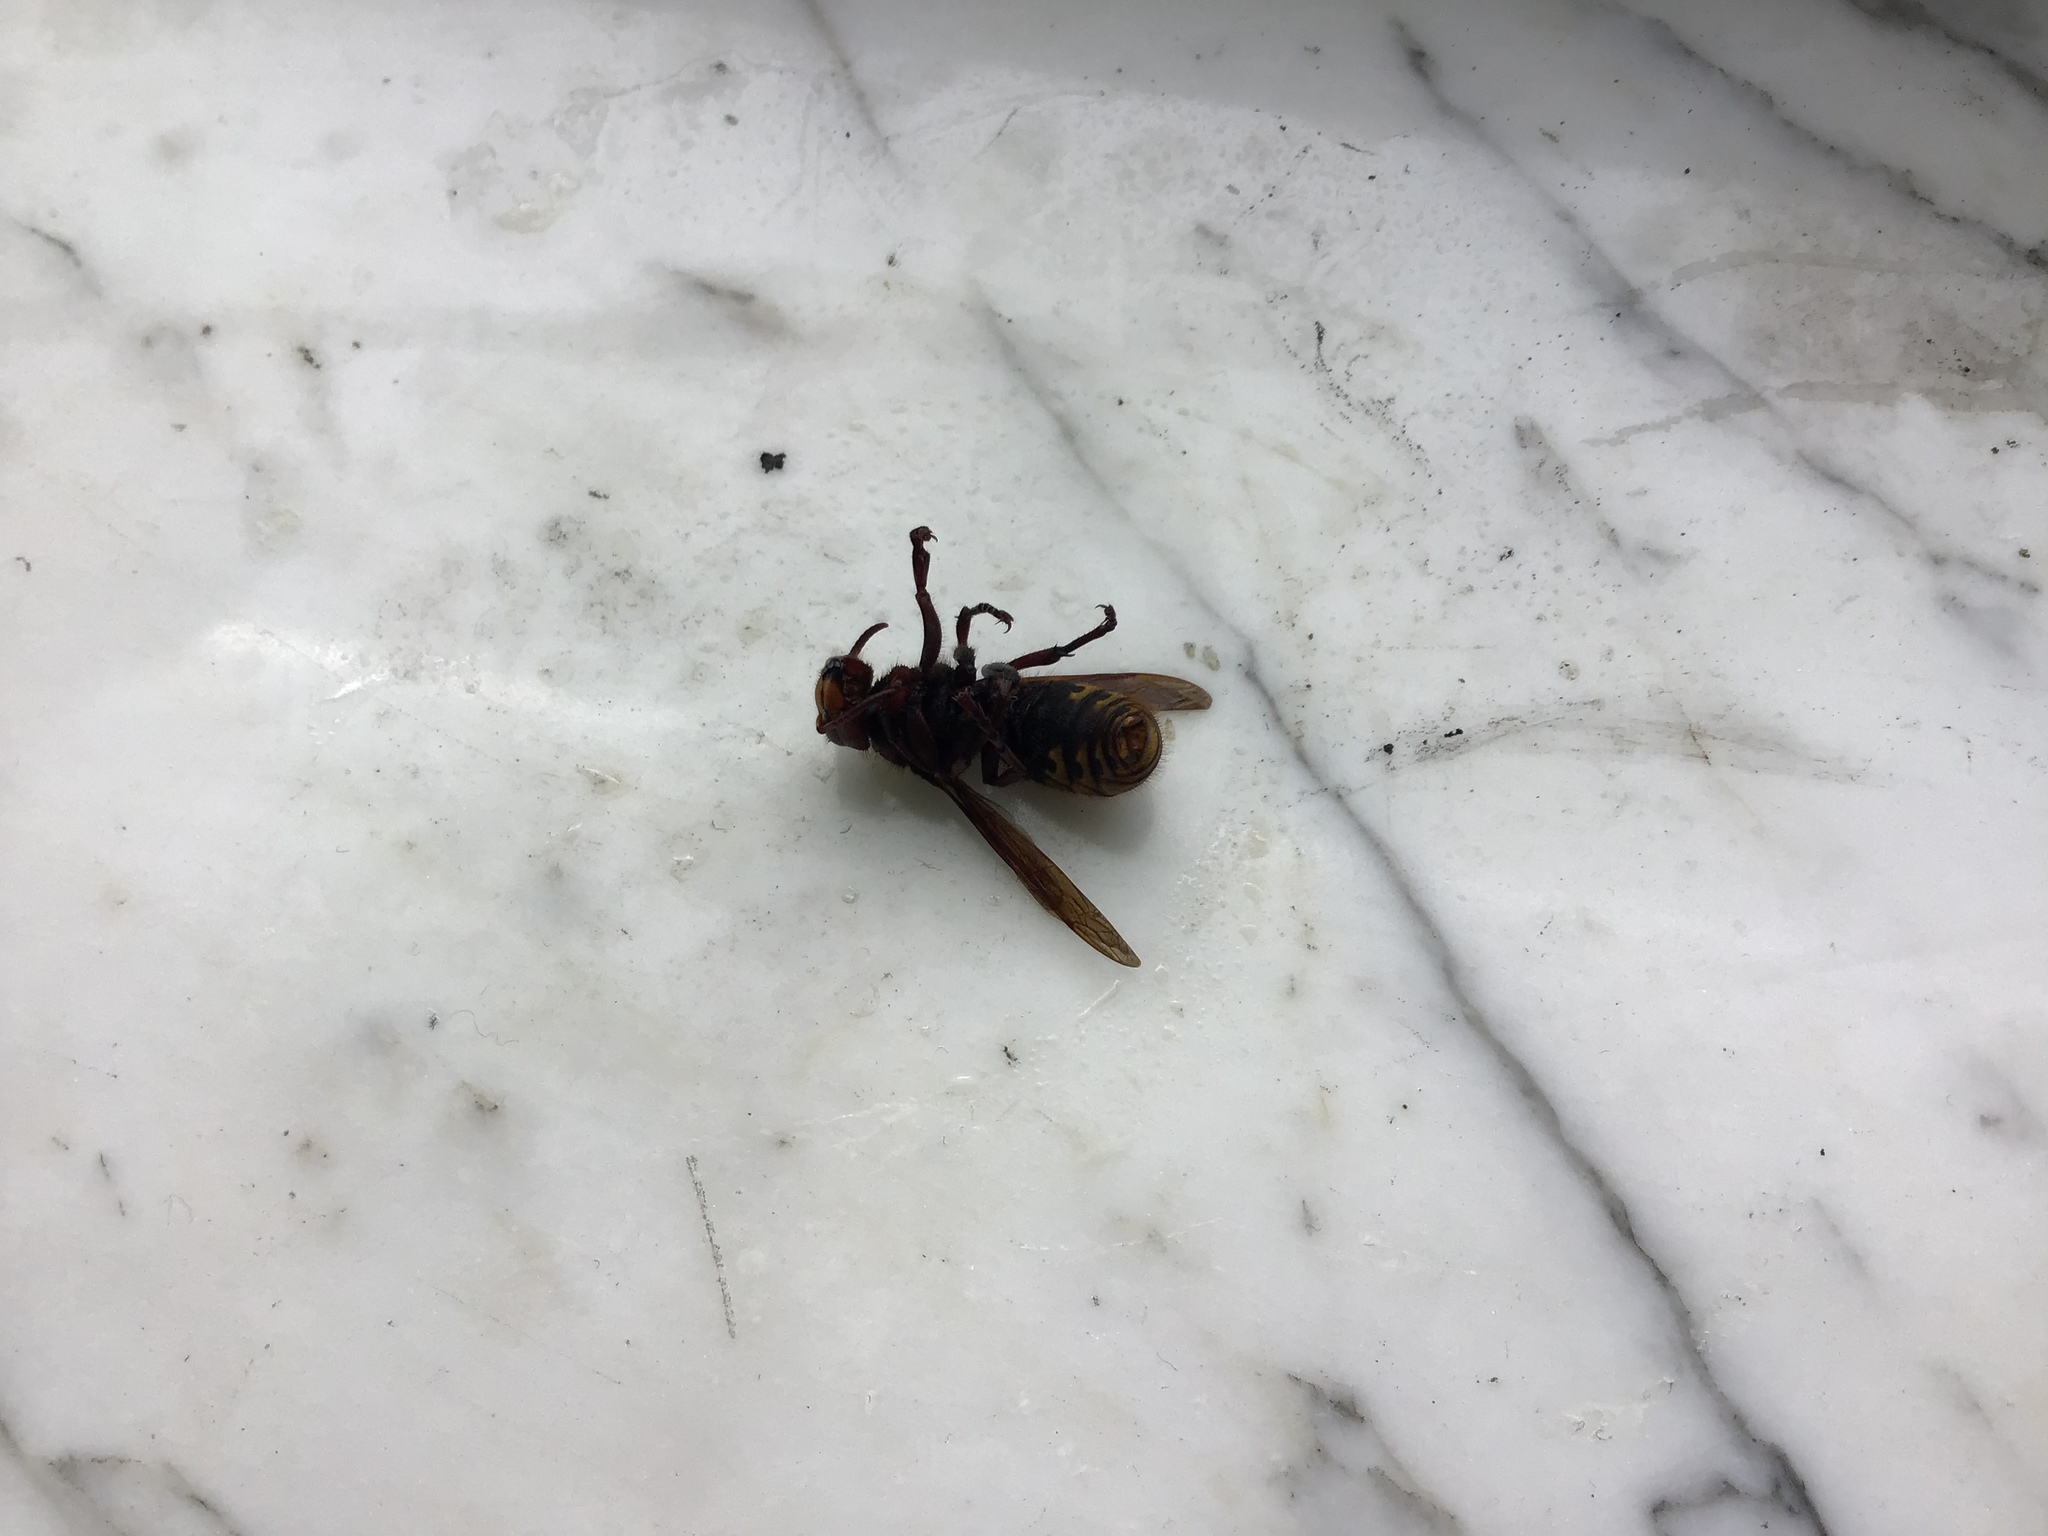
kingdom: Animalia
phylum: Arthropoda
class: Insecta
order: Hymenoptera
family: Vespidae
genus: Vespa
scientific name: Vespa crabro
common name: Hornet
